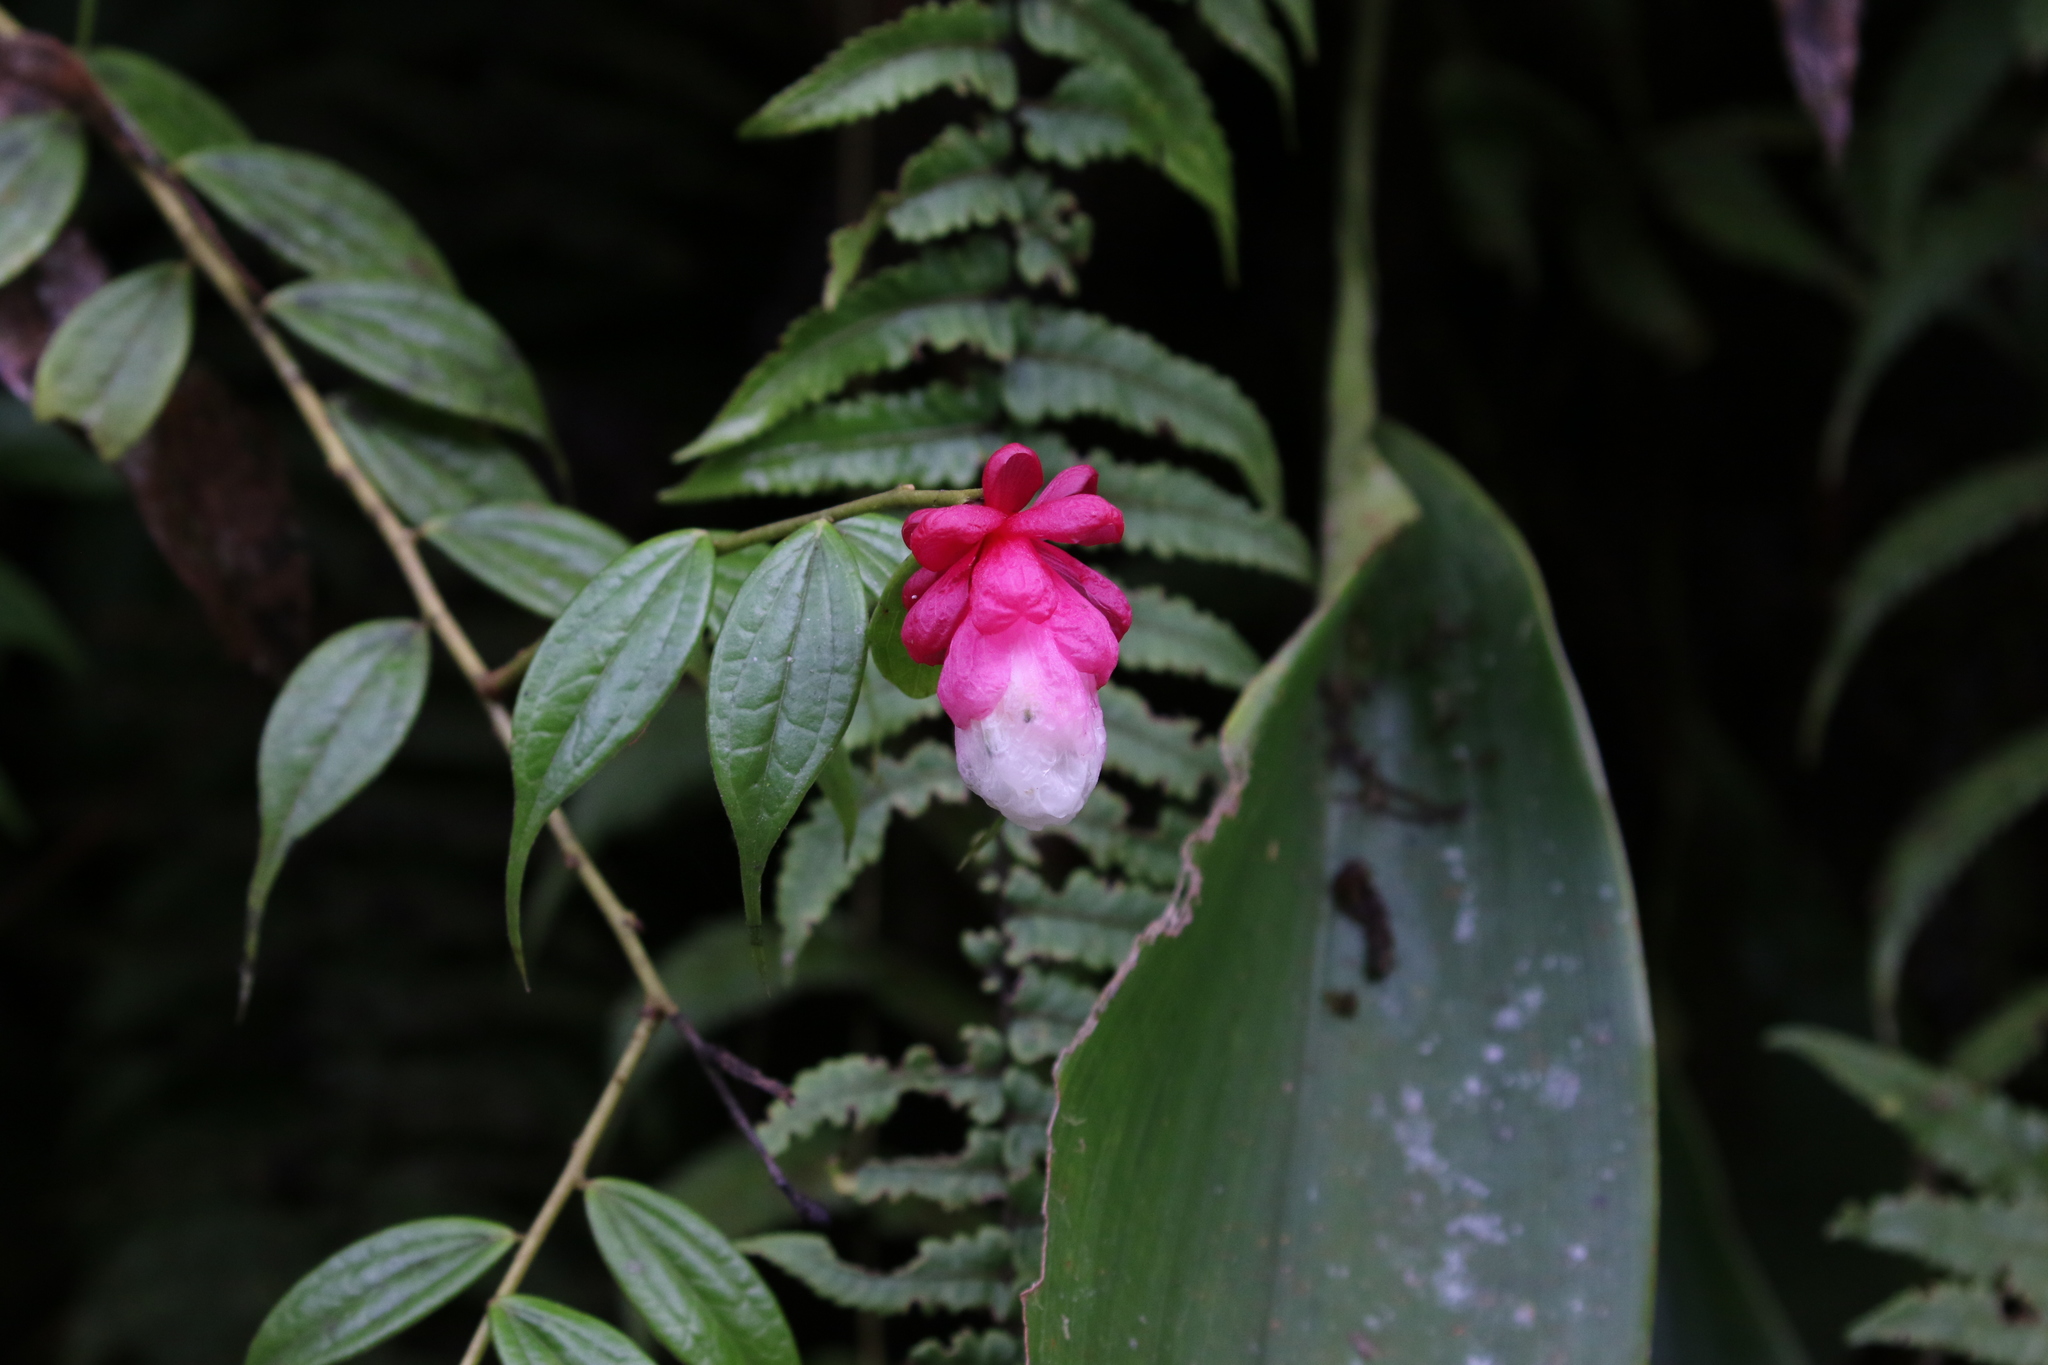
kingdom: Plantae
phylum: Tracheophyta
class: Magnoliopsida
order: Ericales
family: Ericaceae
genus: Cavendishia
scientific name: Cavendishia venosa
